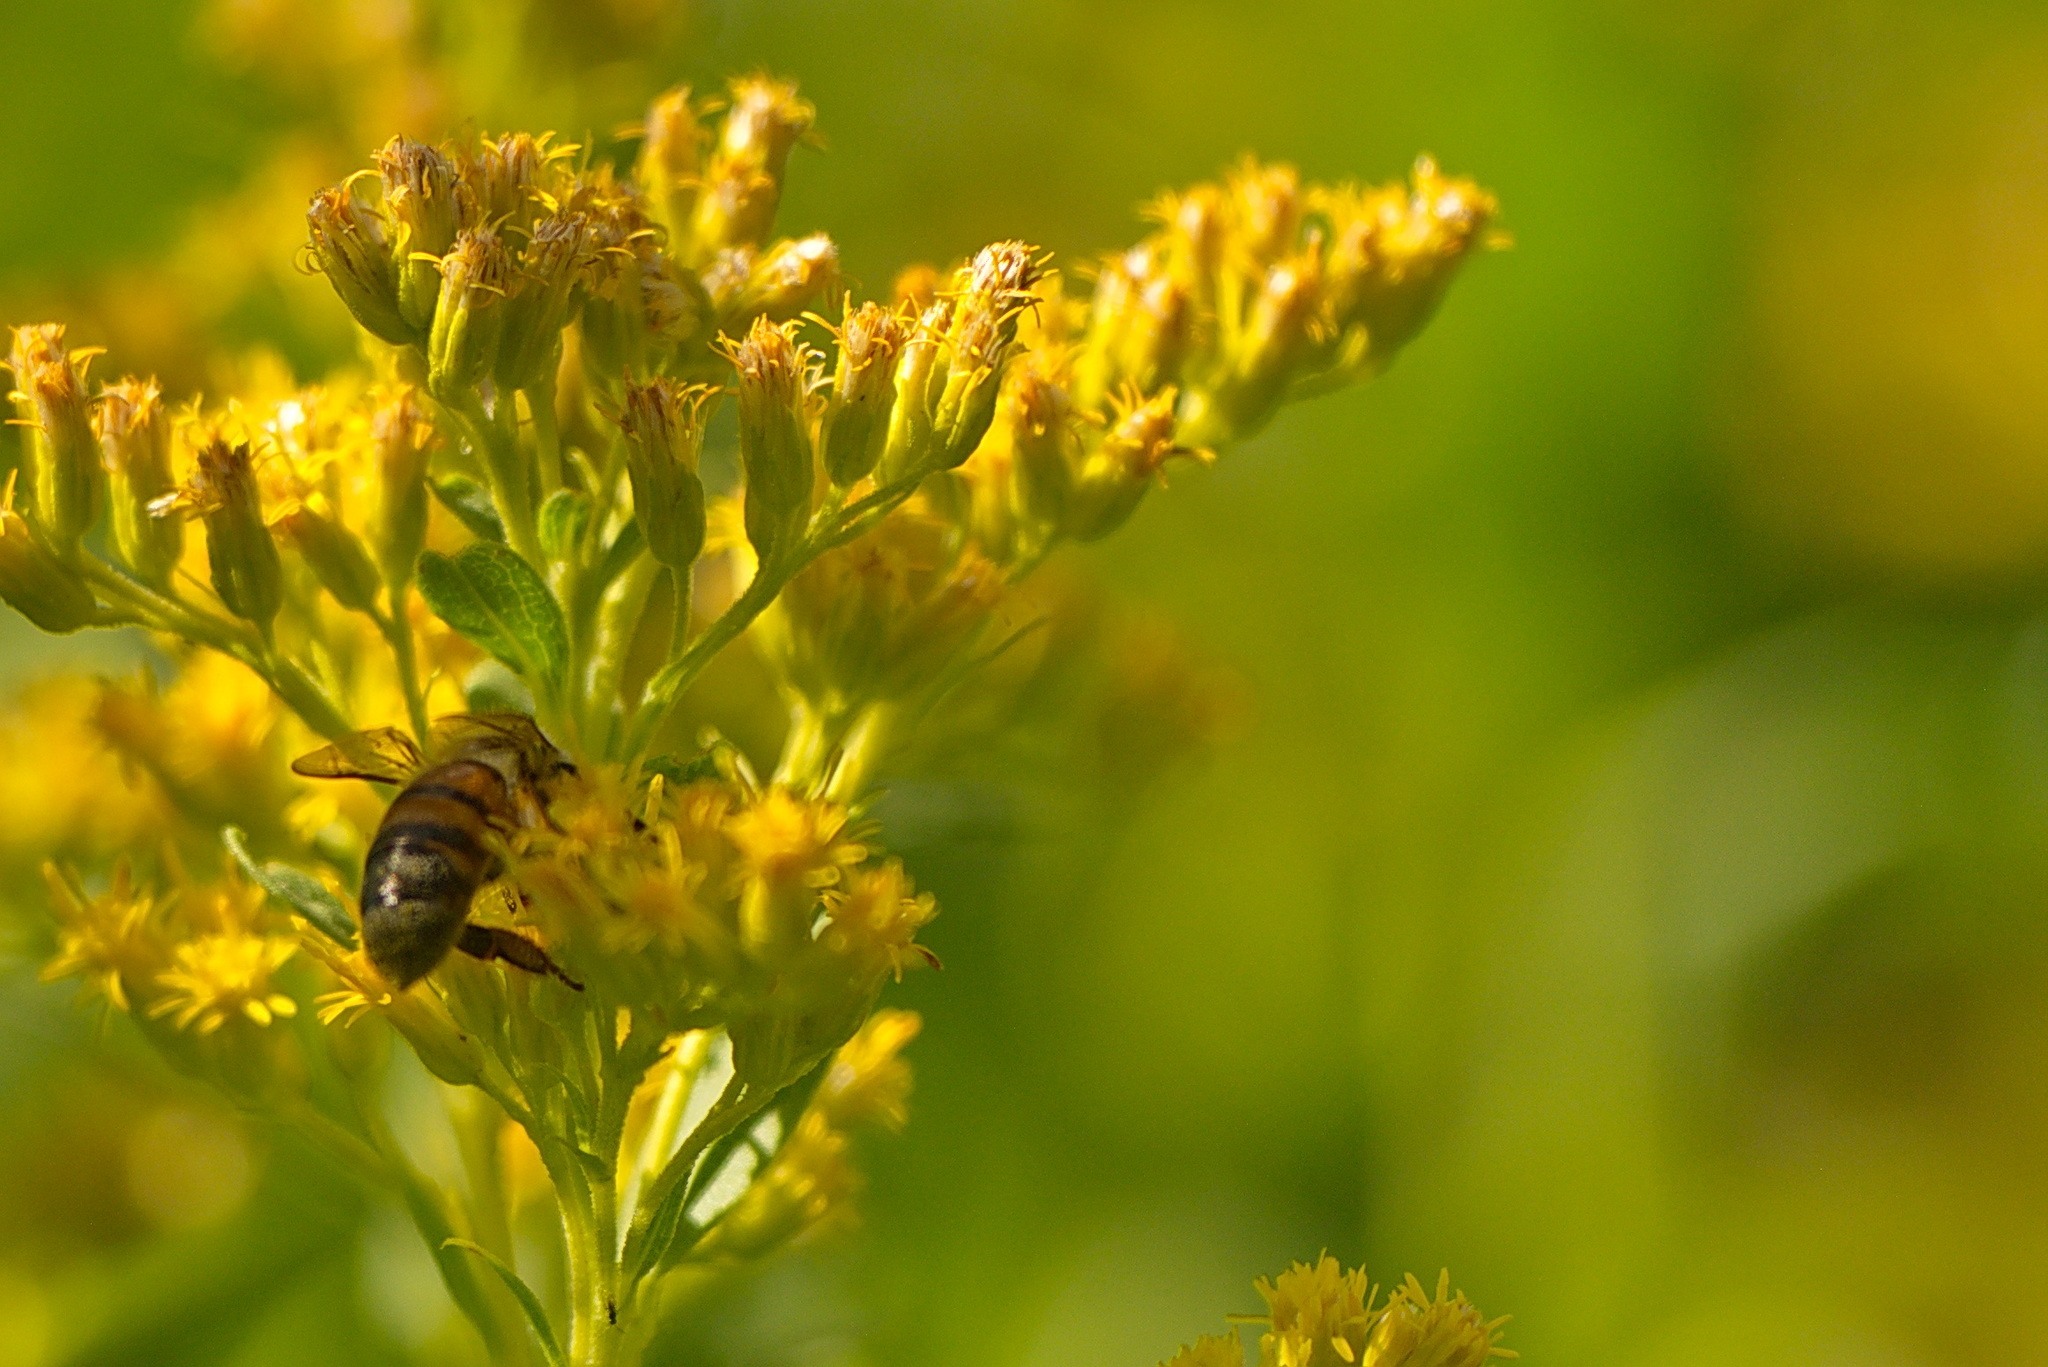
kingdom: Animalia
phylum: Arthropoda
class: Insecta
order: Hymenoptera
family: Apidae
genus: Apis
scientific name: Apis mellifera
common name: Honey bee
